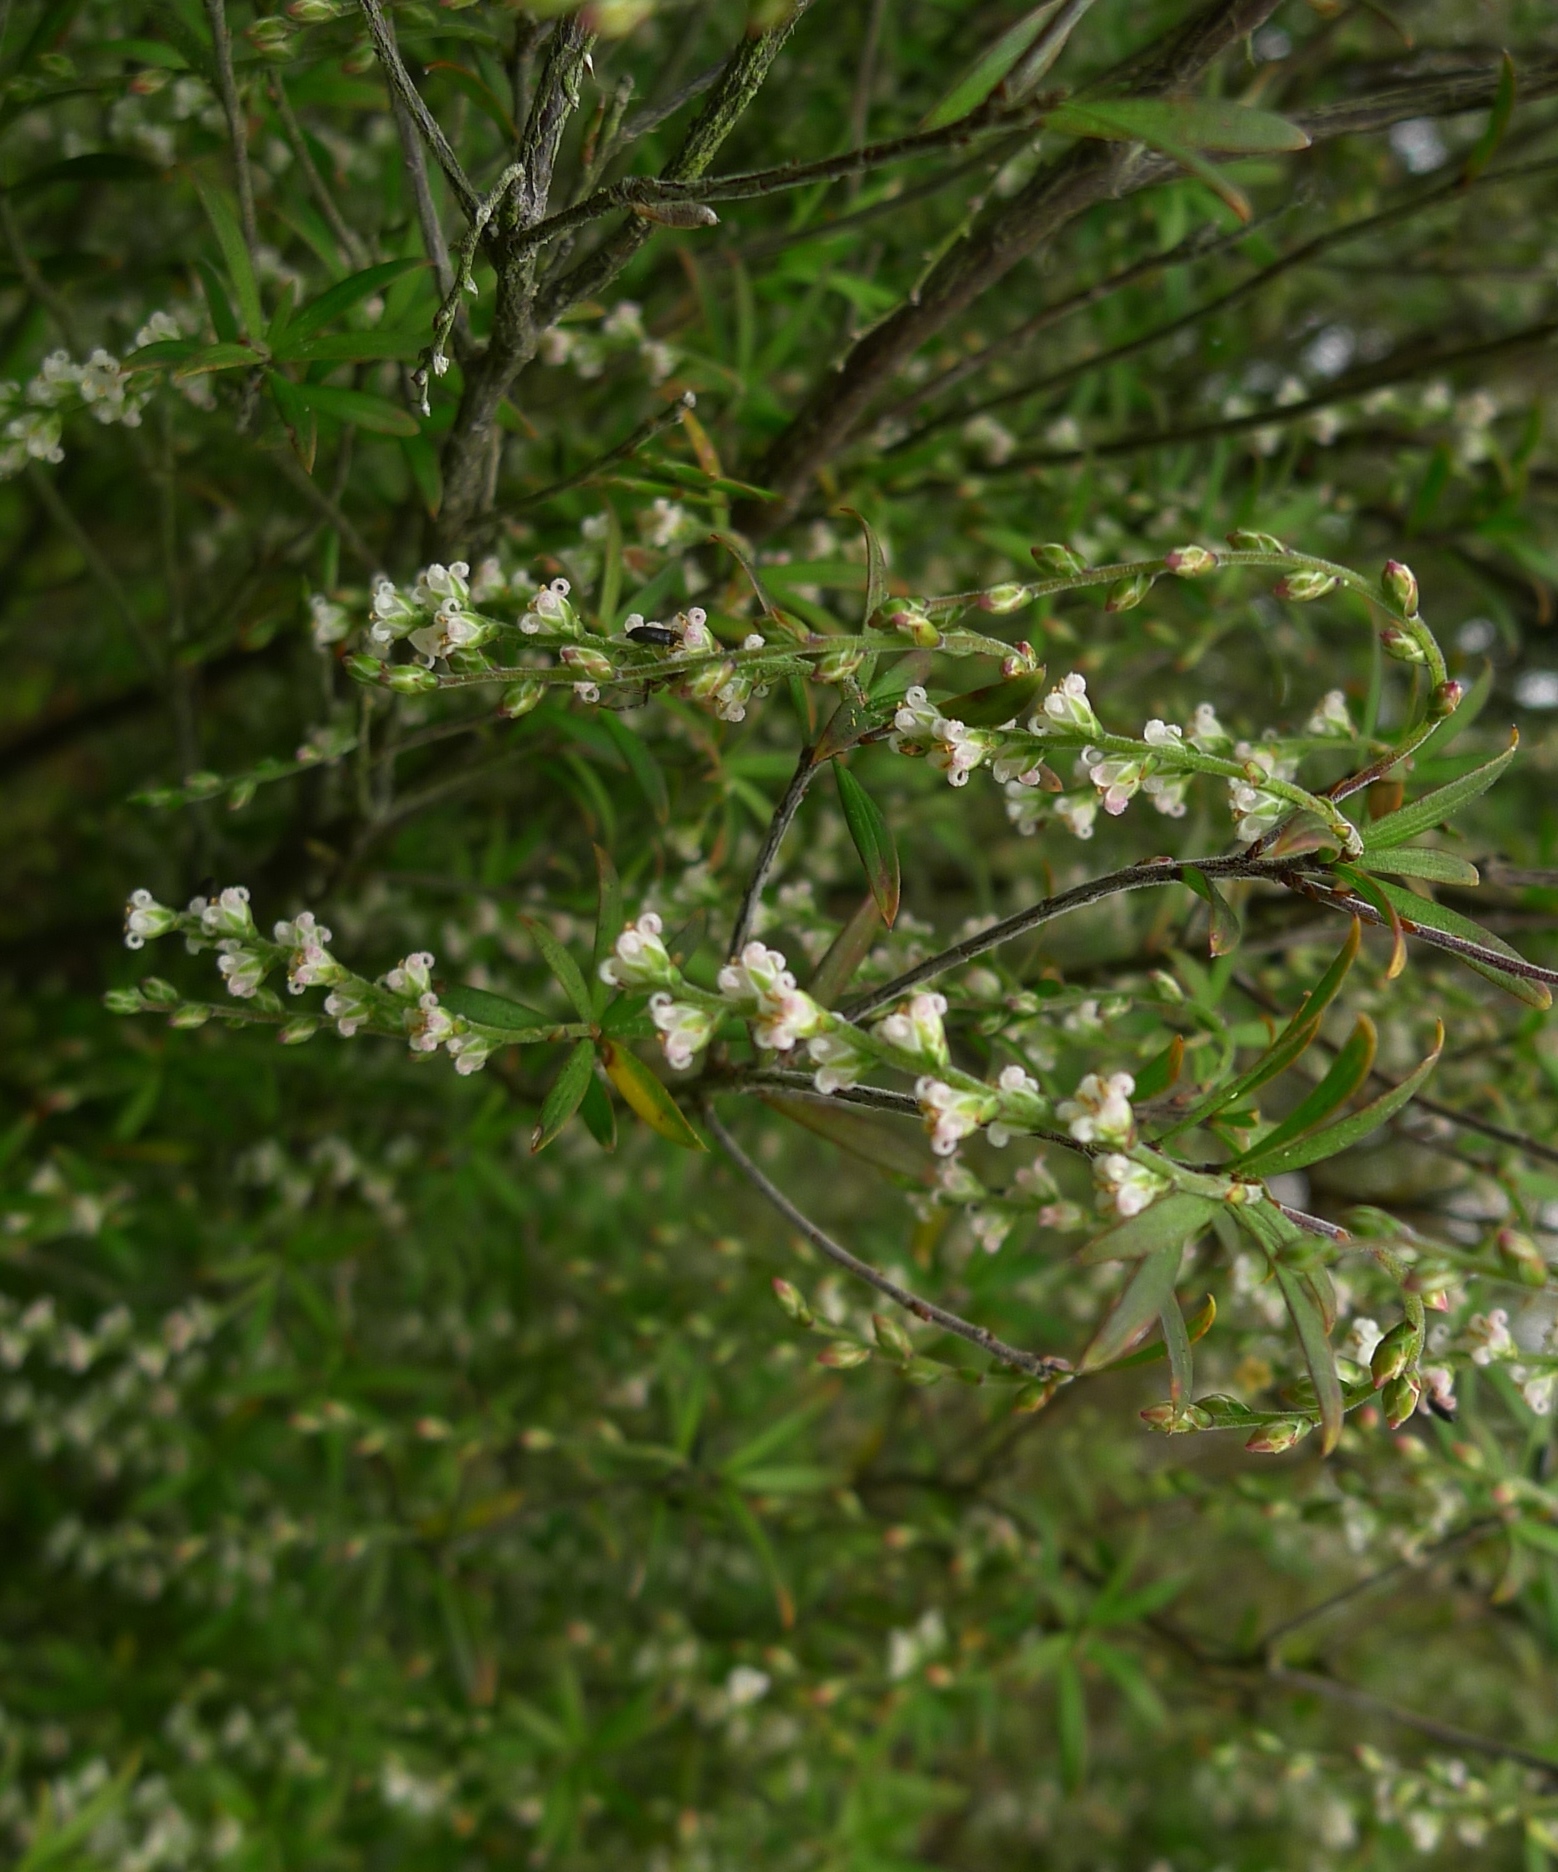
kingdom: Plantae
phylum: Tracheophyta
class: Magnoliopsida
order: Ericales
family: Ericaceae
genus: Leucopogon
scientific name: Leucopogon fasciculatus
